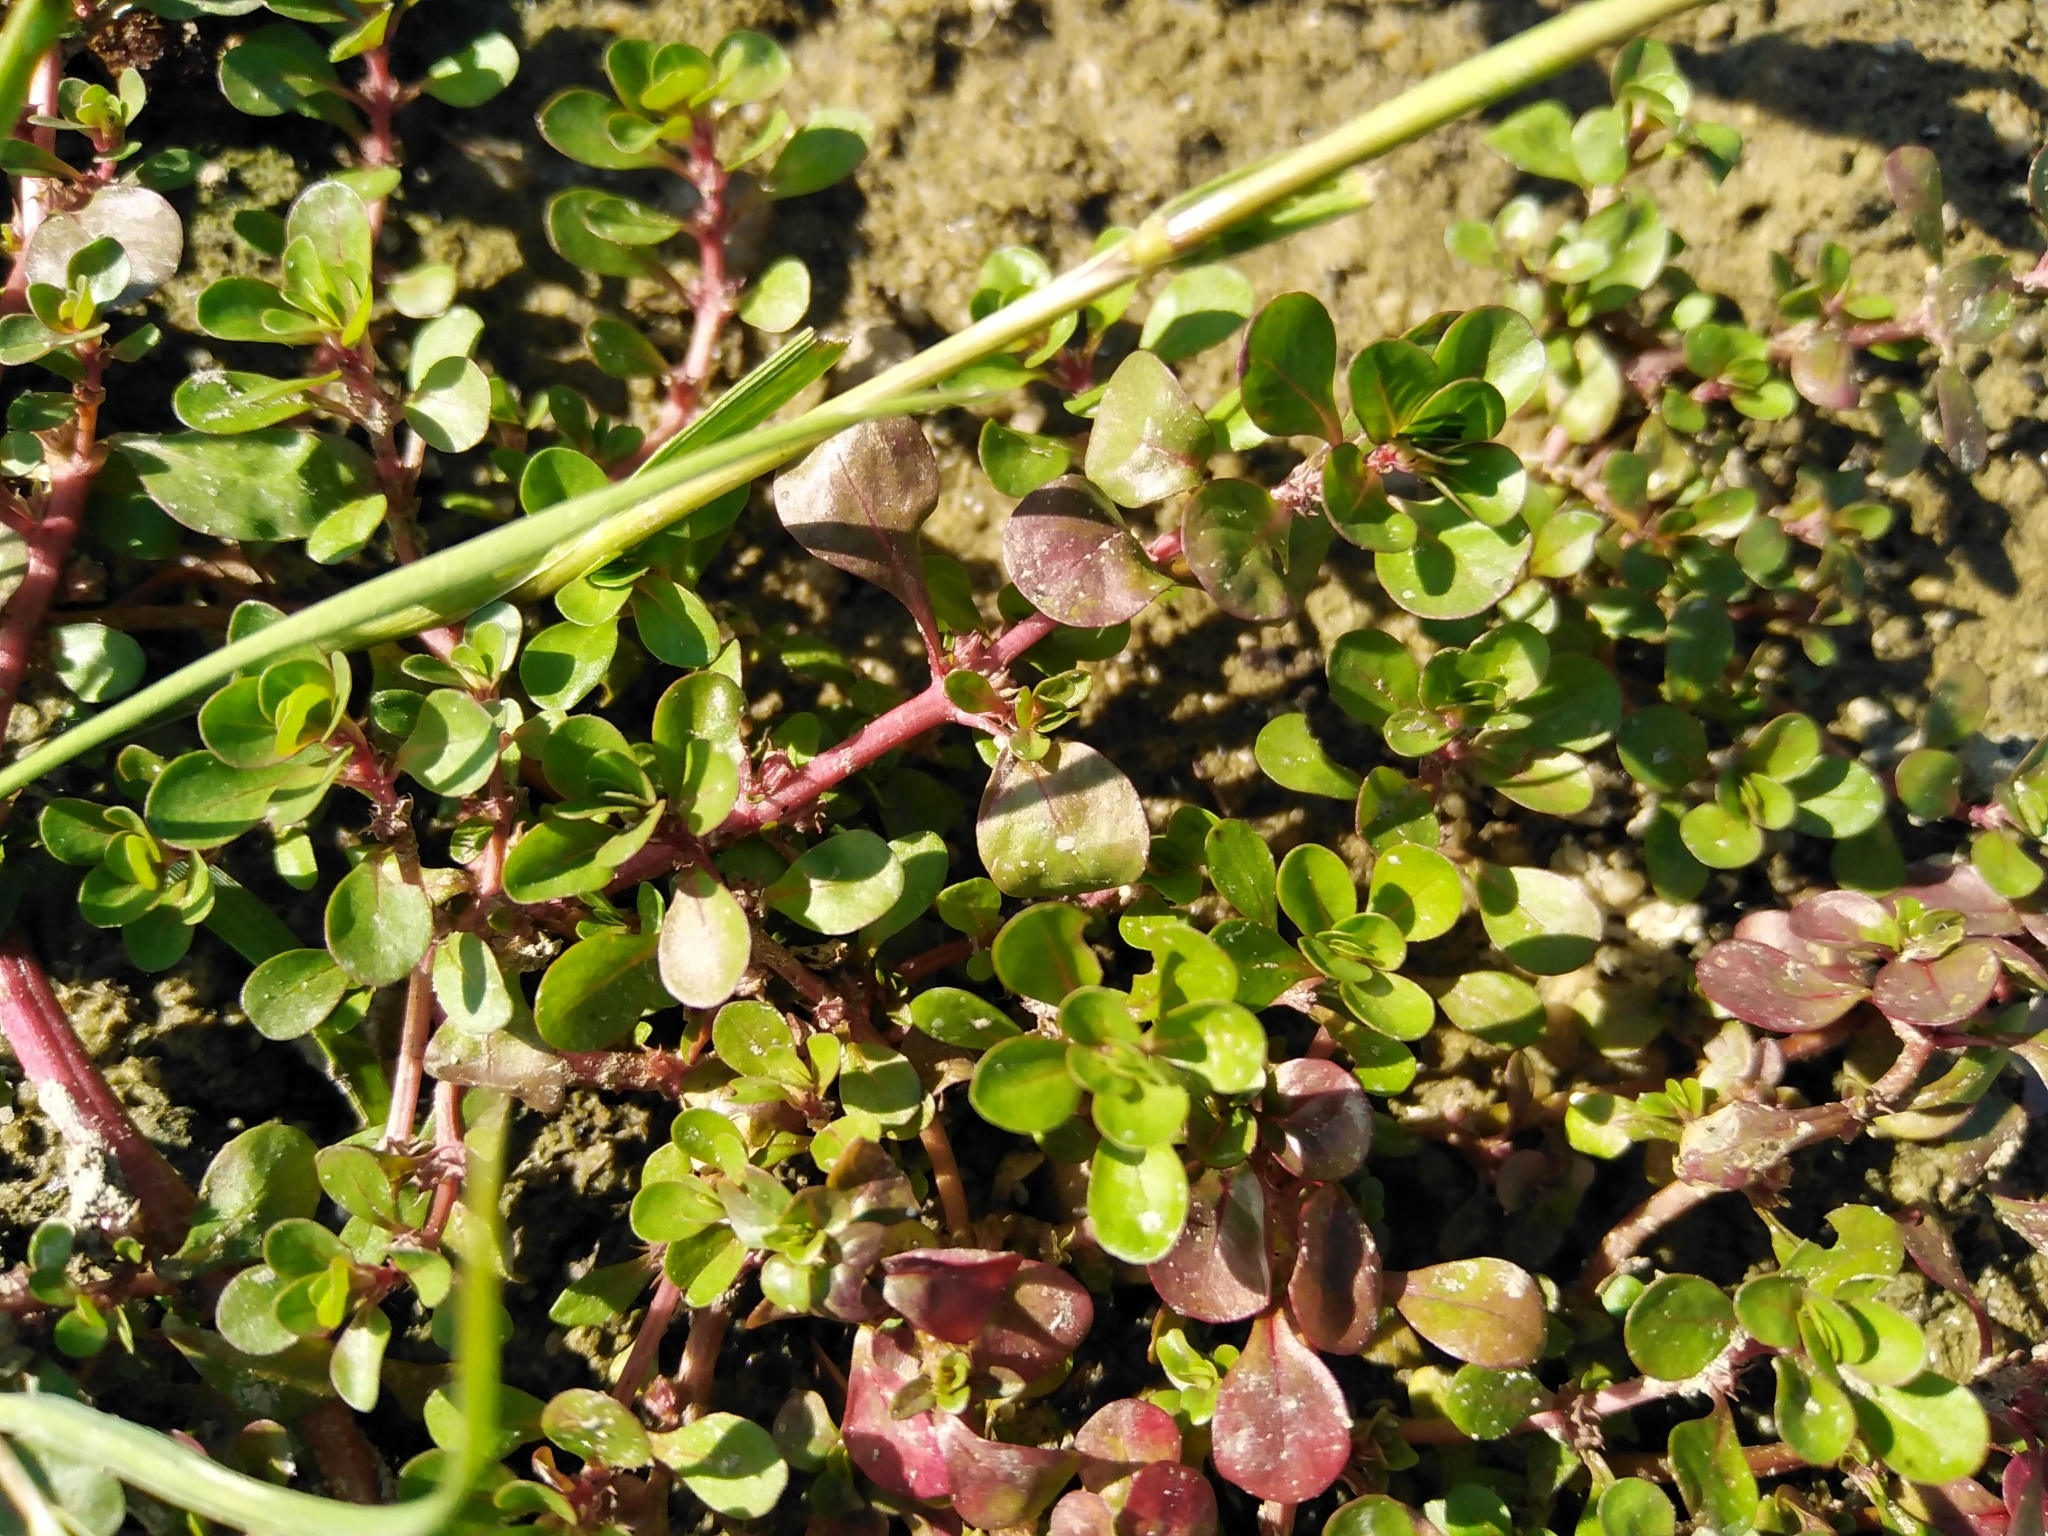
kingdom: Plantae
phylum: Tracheophyta
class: Magnoliopsida
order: Myrtales
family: Lythraceae
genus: Lythrum
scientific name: Lythrum portula
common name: Water purslane
